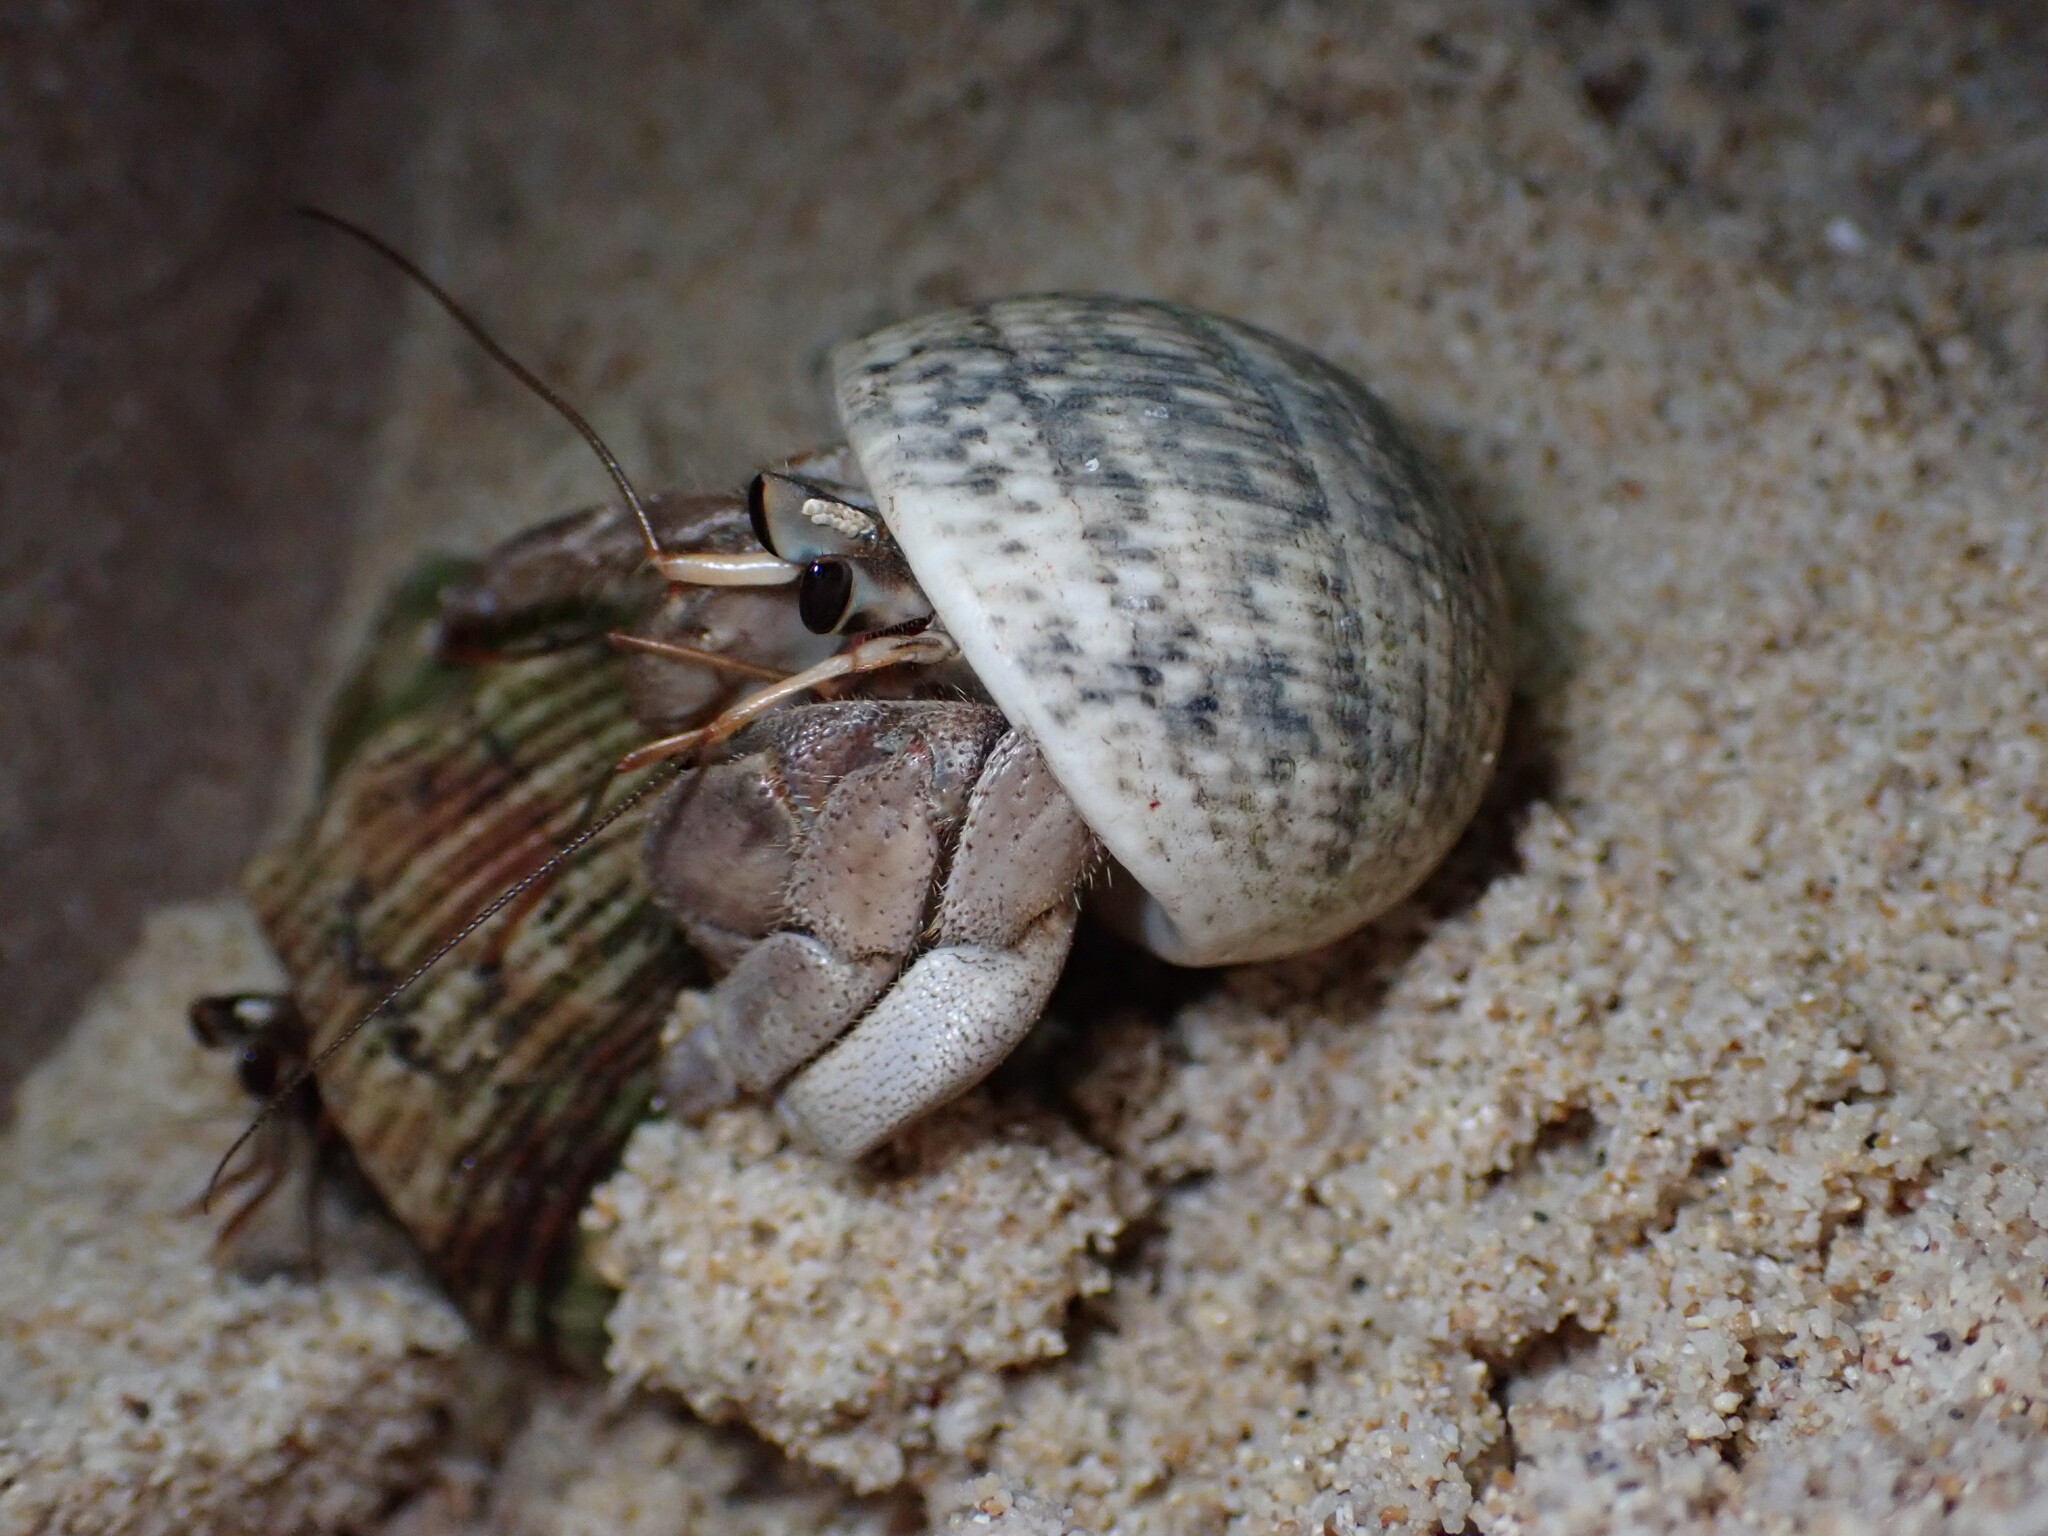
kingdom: Animalia
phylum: Arthropoda
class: Malacostraca
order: Decapoda
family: Coenobitidae
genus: Coenobita
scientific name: Coenobita rugosus
